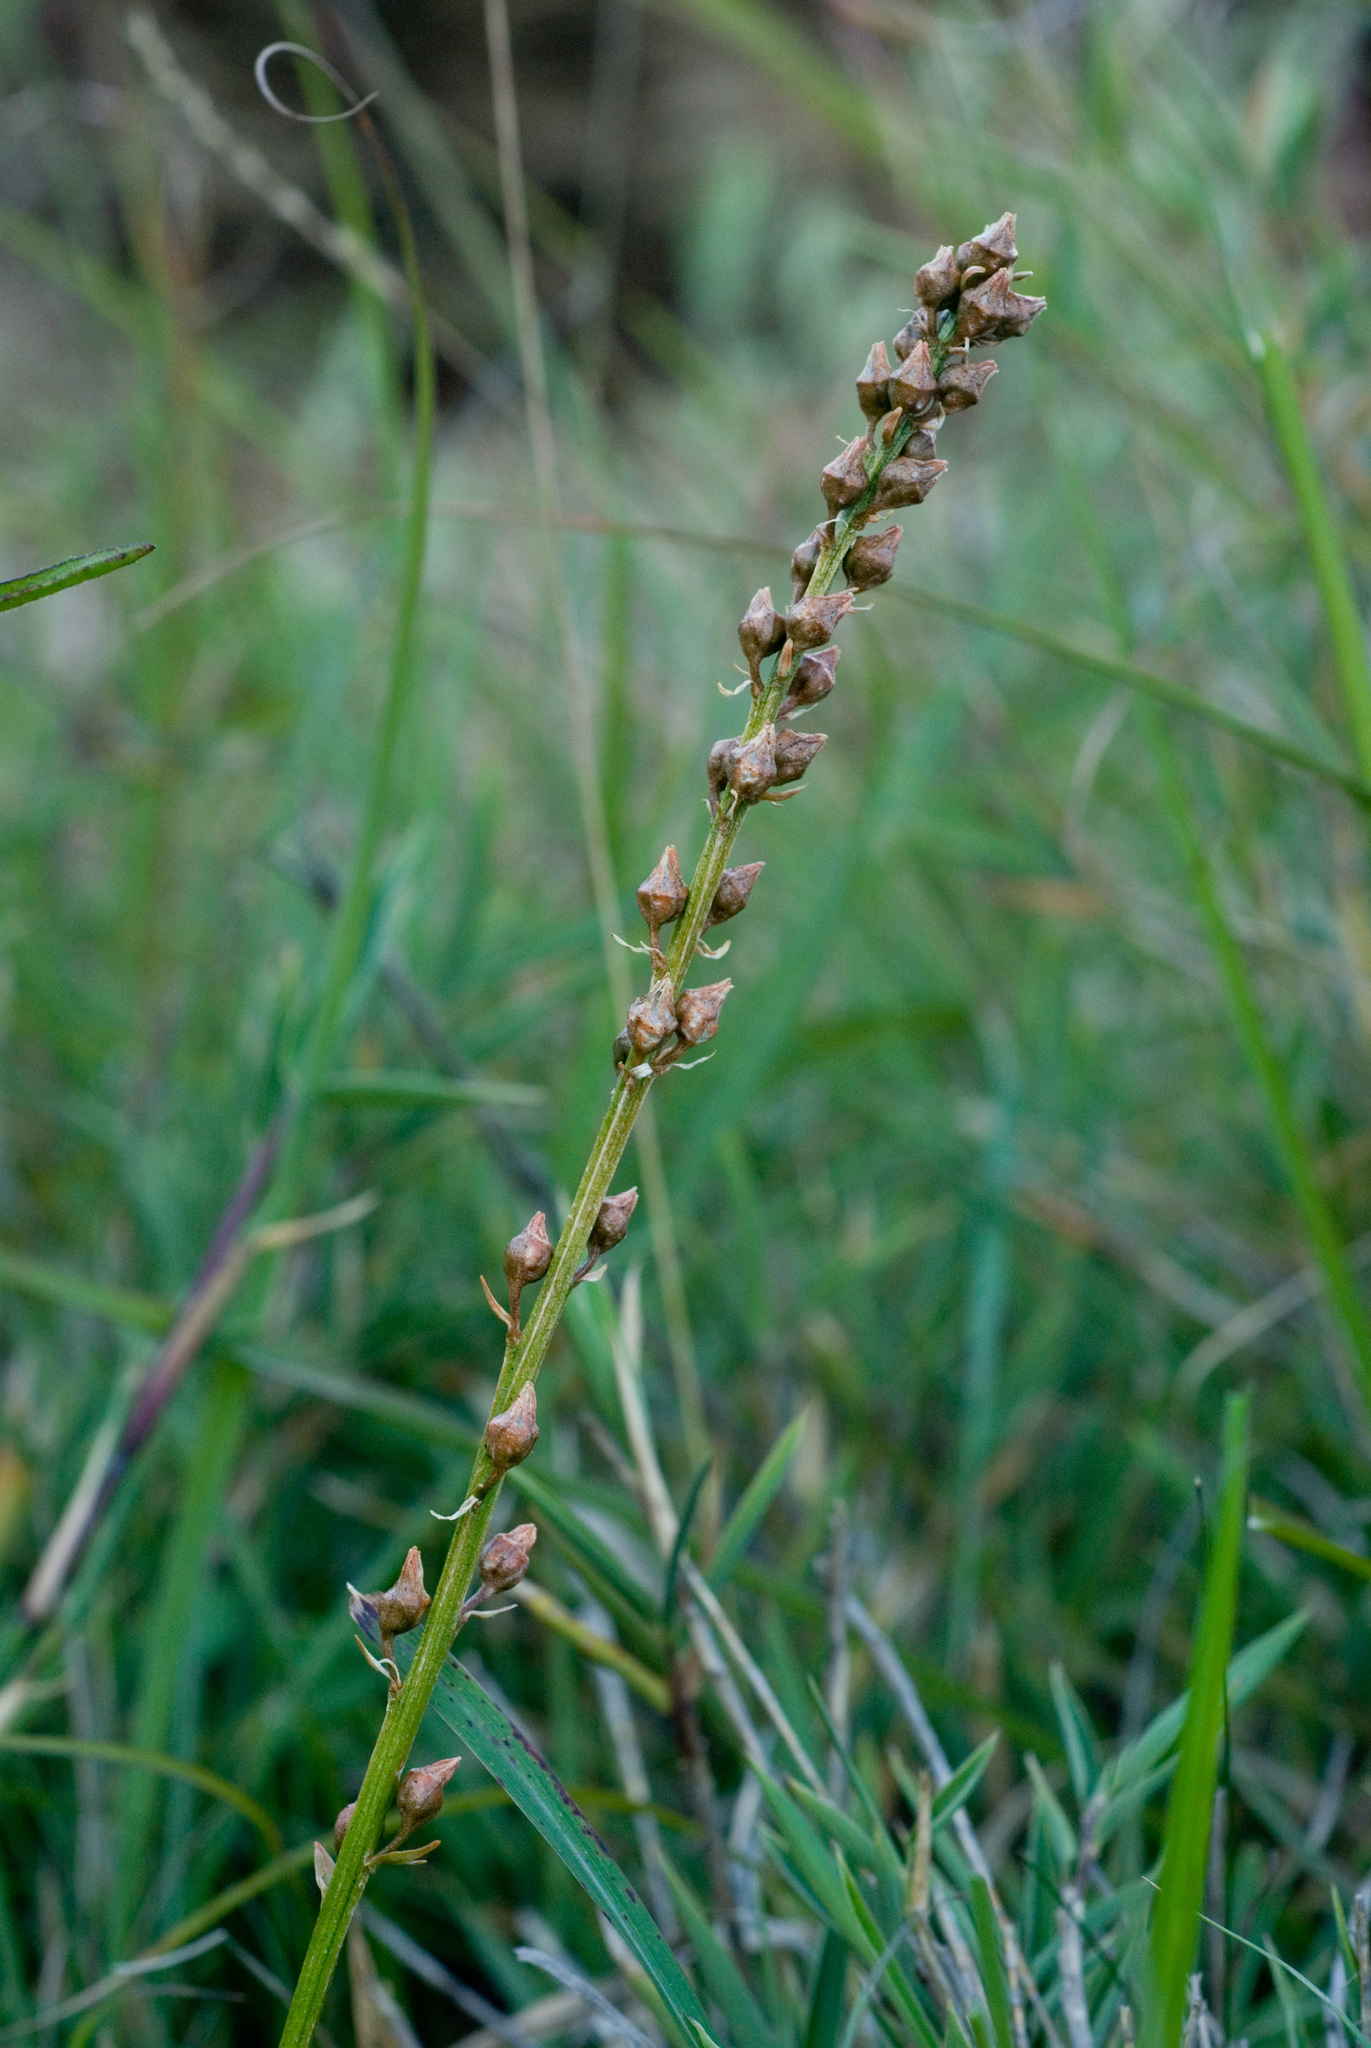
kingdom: Plantae
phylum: Tracheophyta
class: Liliopsida
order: Dioscoreales
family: Nartheciaceae
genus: Aletris
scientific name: Aletris glabra
